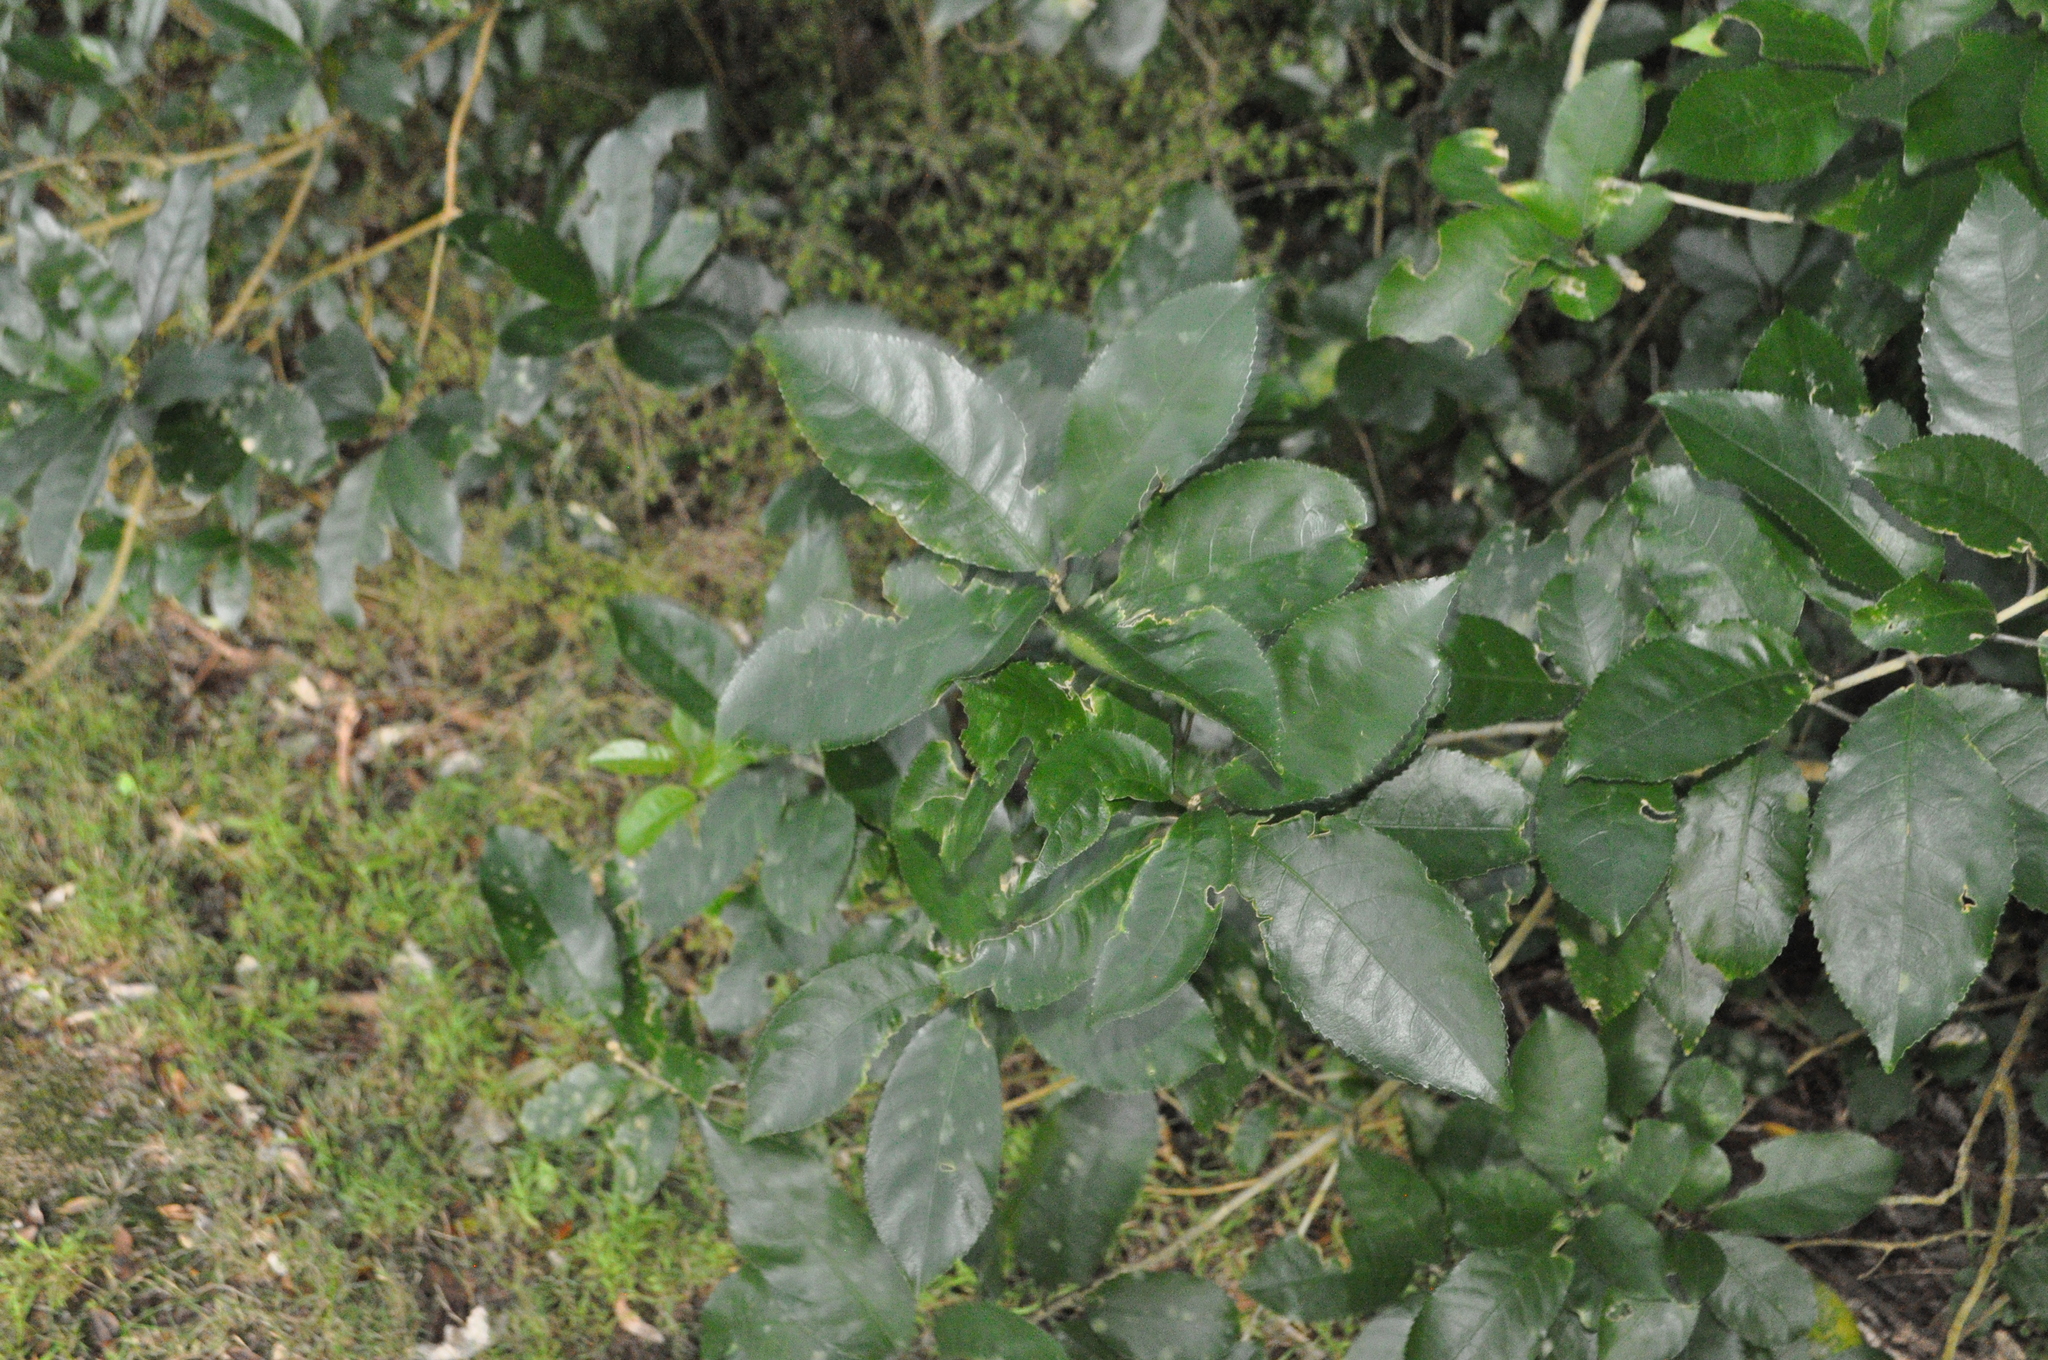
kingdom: Plantae
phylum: Tracheophyta
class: Magnoliopsida
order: Malpighiales
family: Violaceae
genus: Melicytus
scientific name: Melicytus ramiflorus
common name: Mahoe
